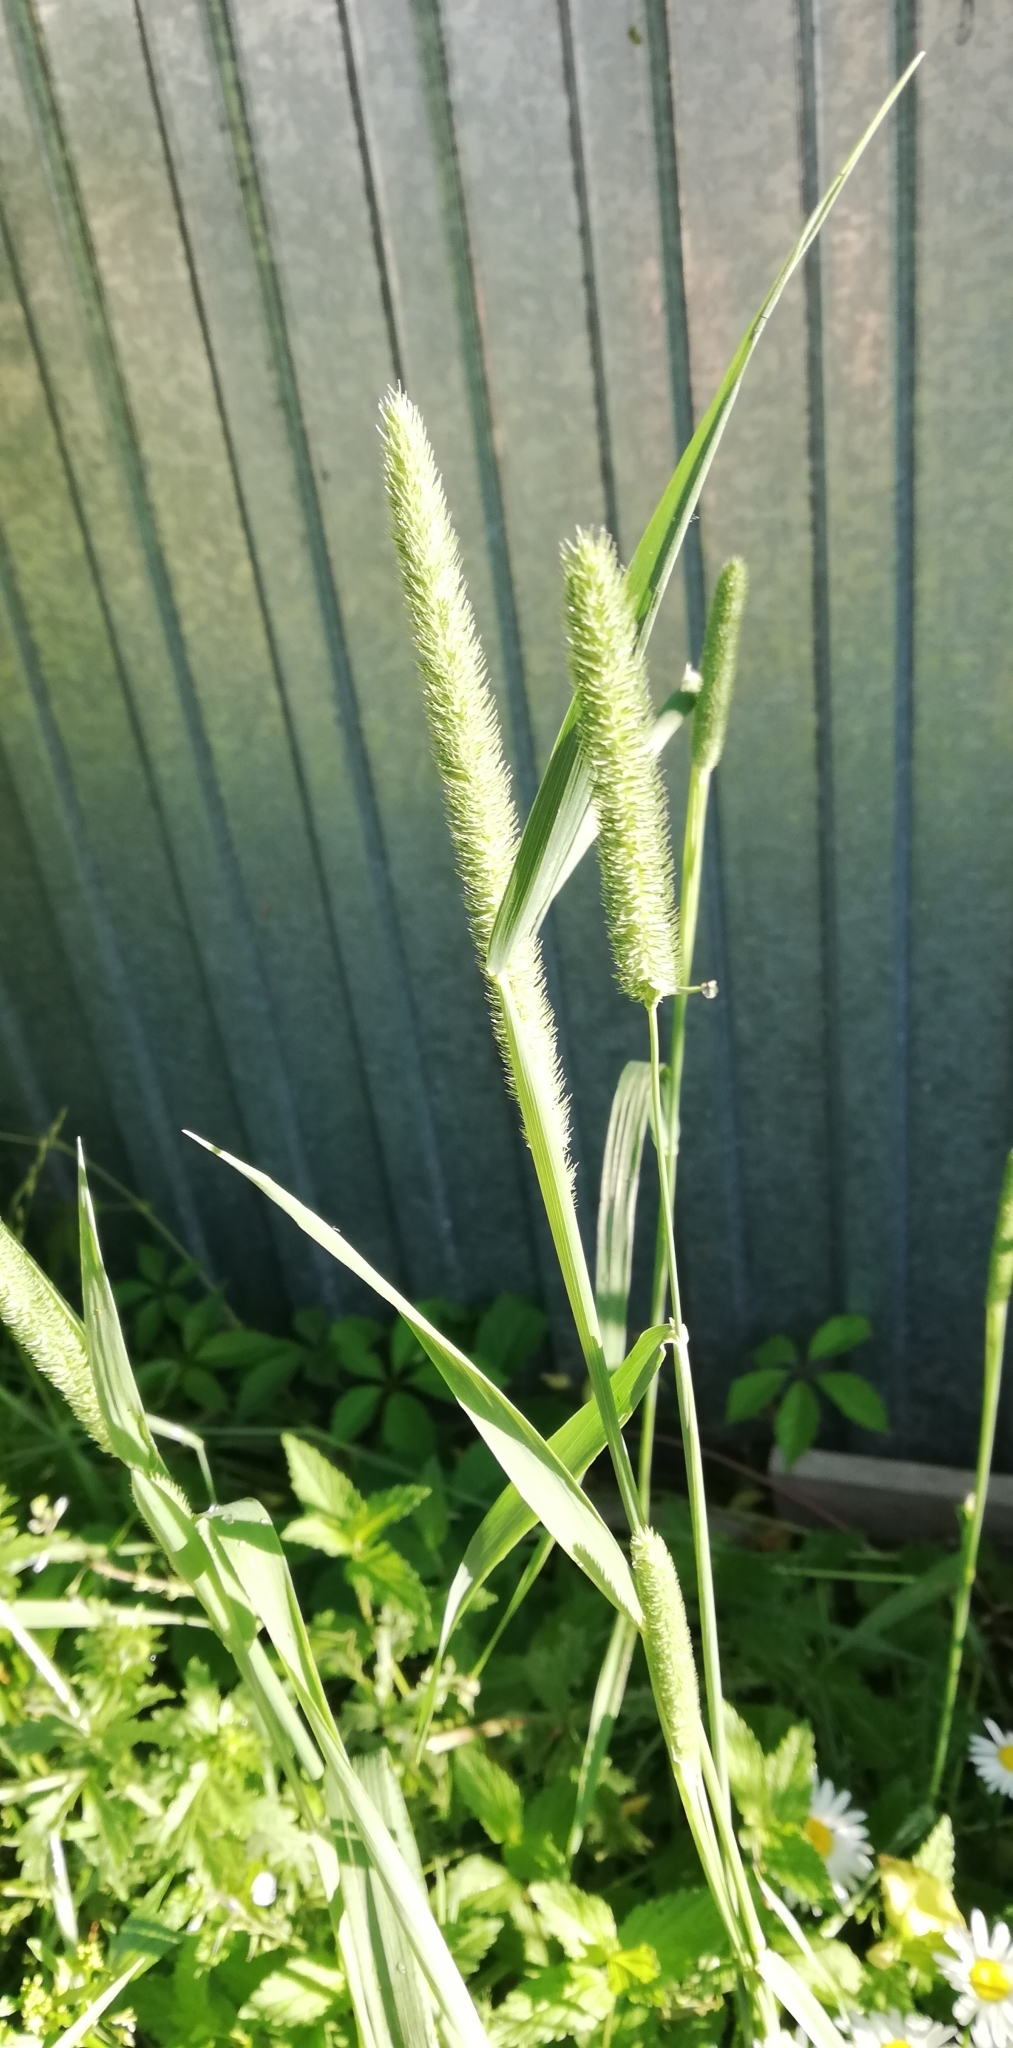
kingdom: Plantae
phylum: Tracheophyta
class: Liliopsida
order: Poales
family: Poaceae
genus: Phleum
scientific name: Phleum pratense
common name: Timothy grass
